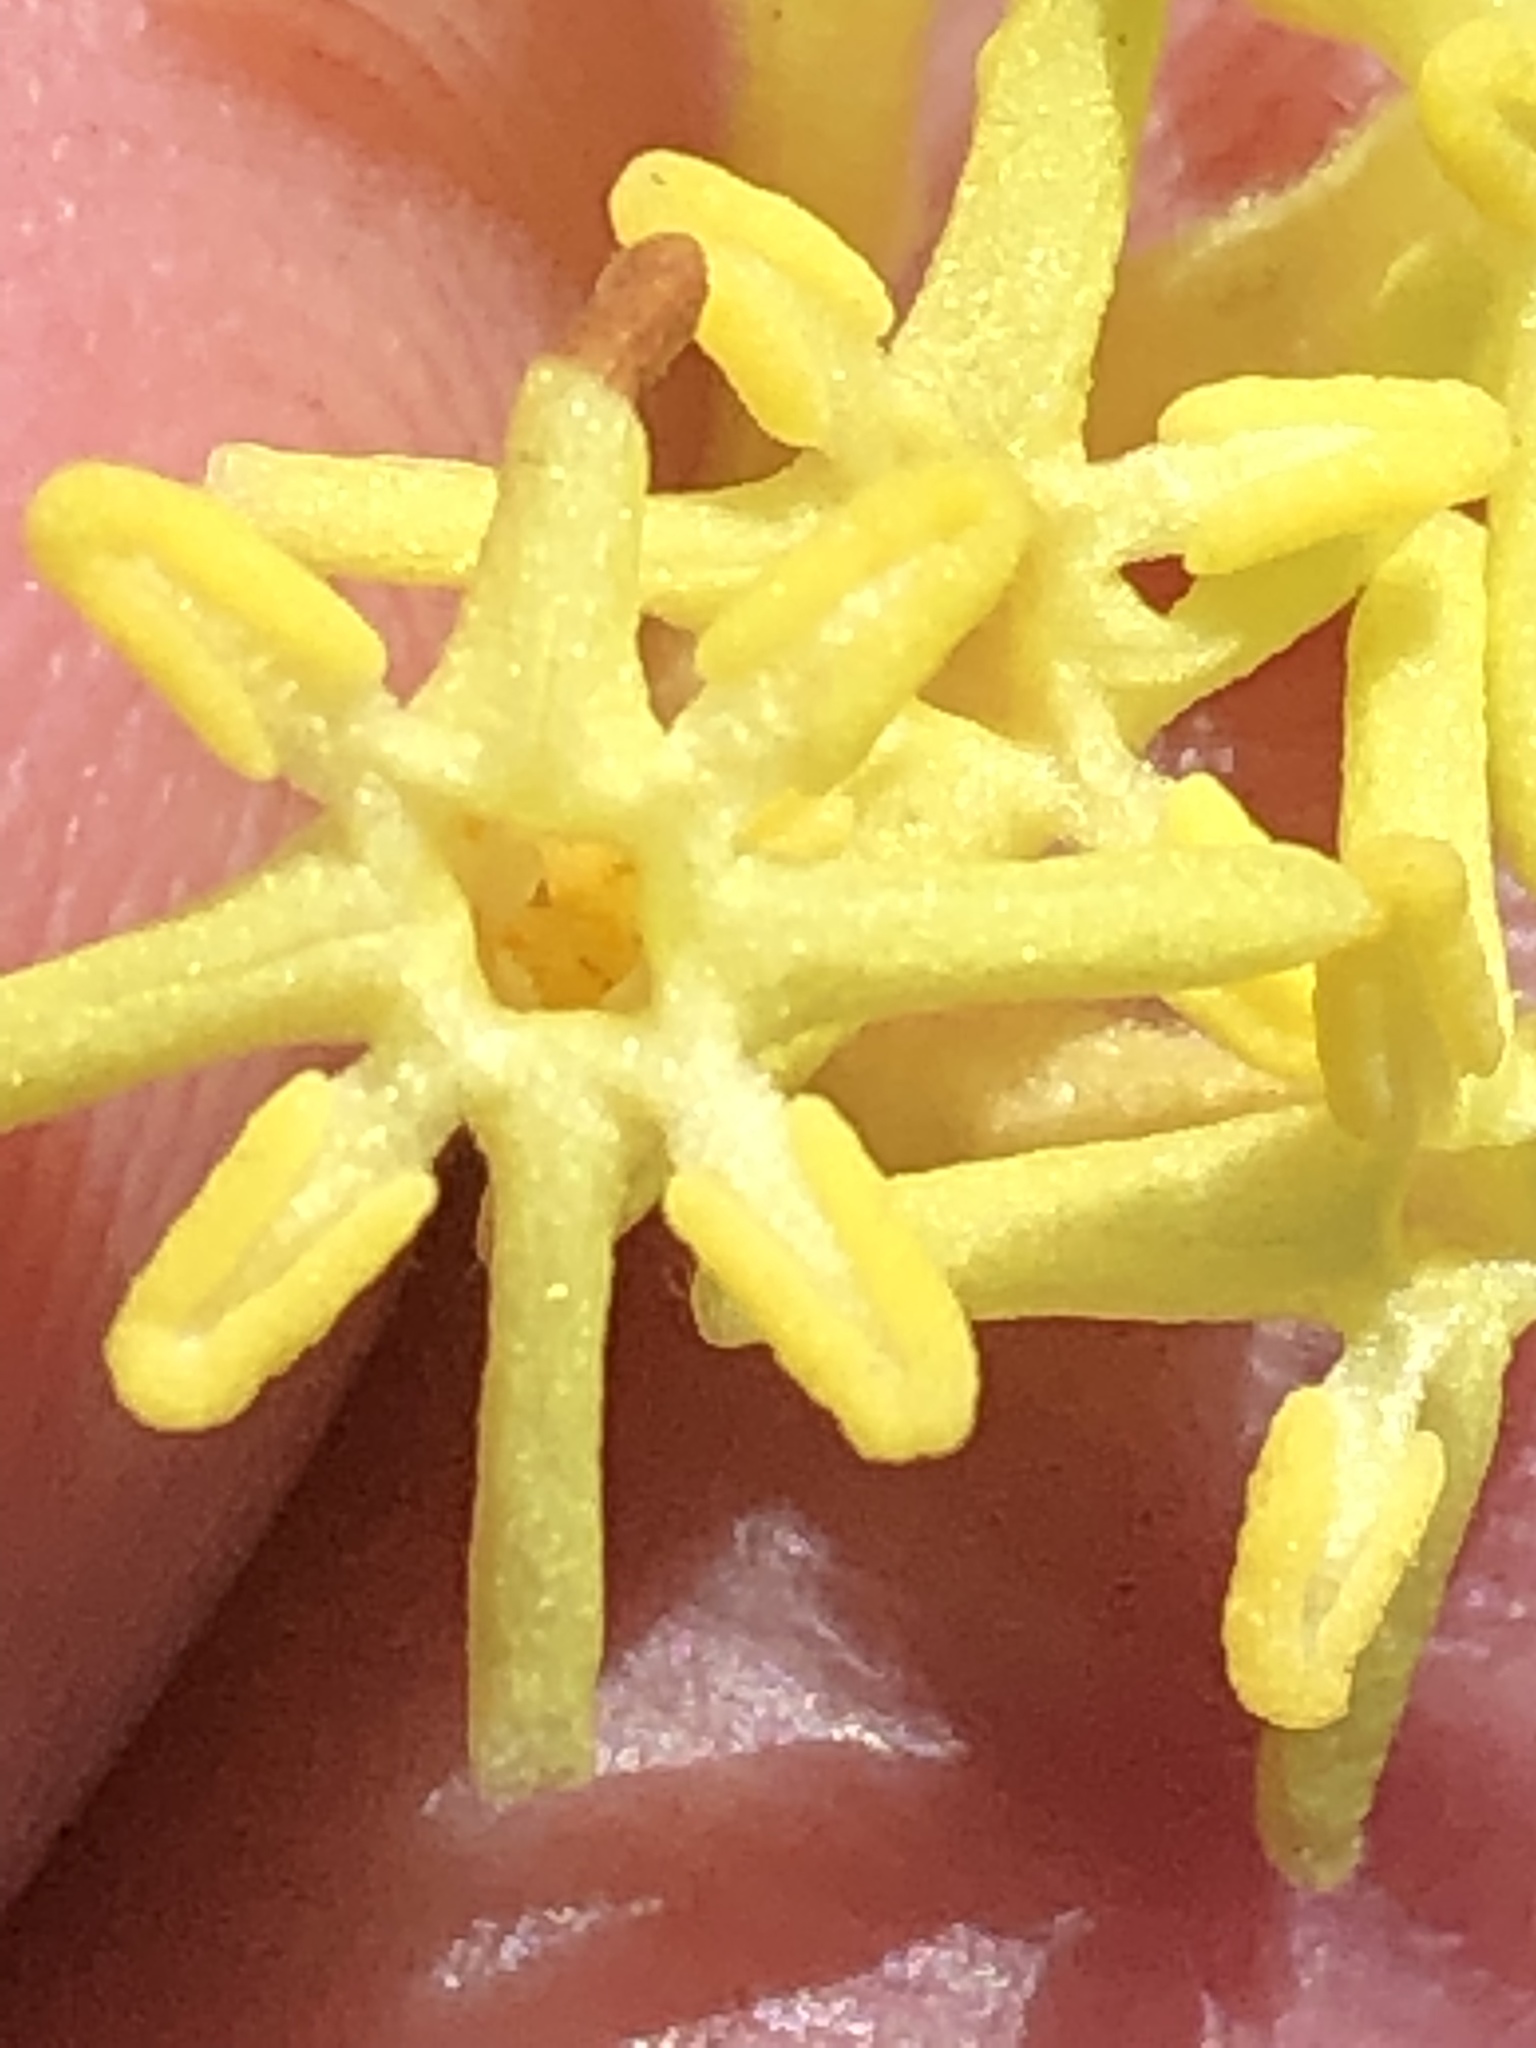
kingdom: Plantae
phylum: Tracheophyta
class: Magnoliopsida
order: Malvales
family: Thymelaeaceae
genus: Gnidia
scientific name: Gnidia oppositifolia
